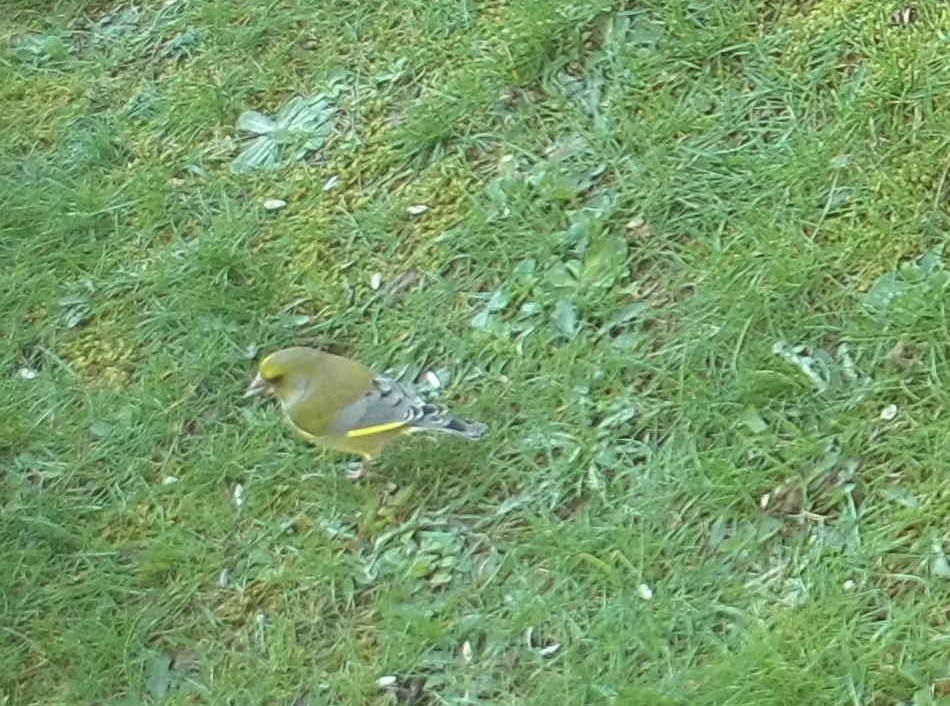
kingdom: Plantae
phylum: Tracheophyta
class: Liliopsida
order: Poales
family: Poaceae
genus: Chloris
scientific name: Chloris chloris
